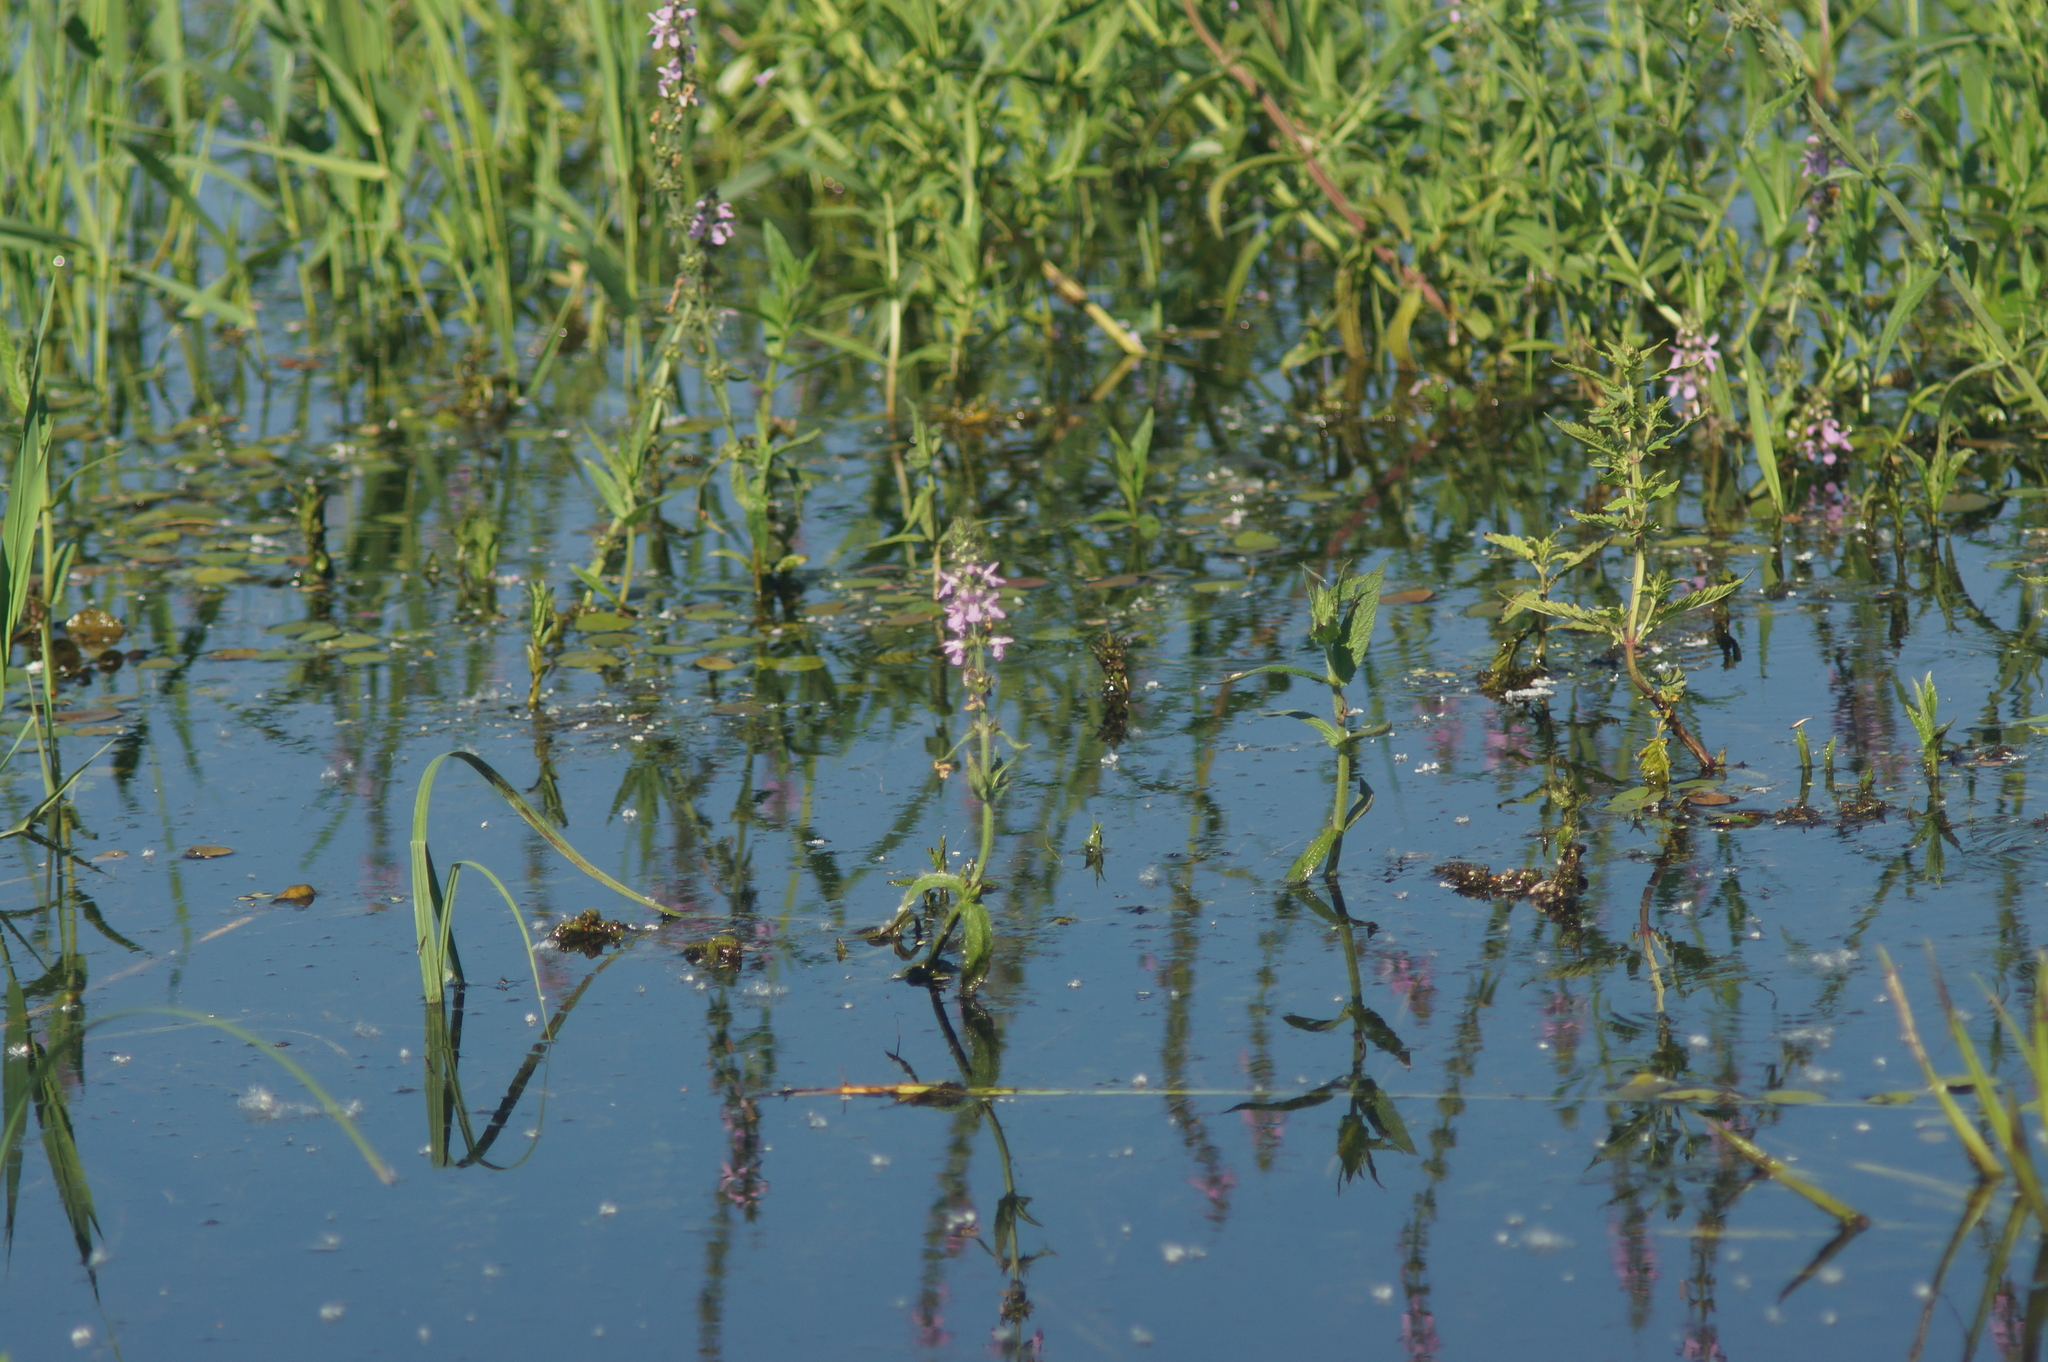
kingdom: Plantae
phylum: Tracheophyta
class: Magnoliopsida
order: Lamiales
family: Lamiaceae
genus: Stachys
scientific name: Stachys palustris
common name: Marsh woundwort
